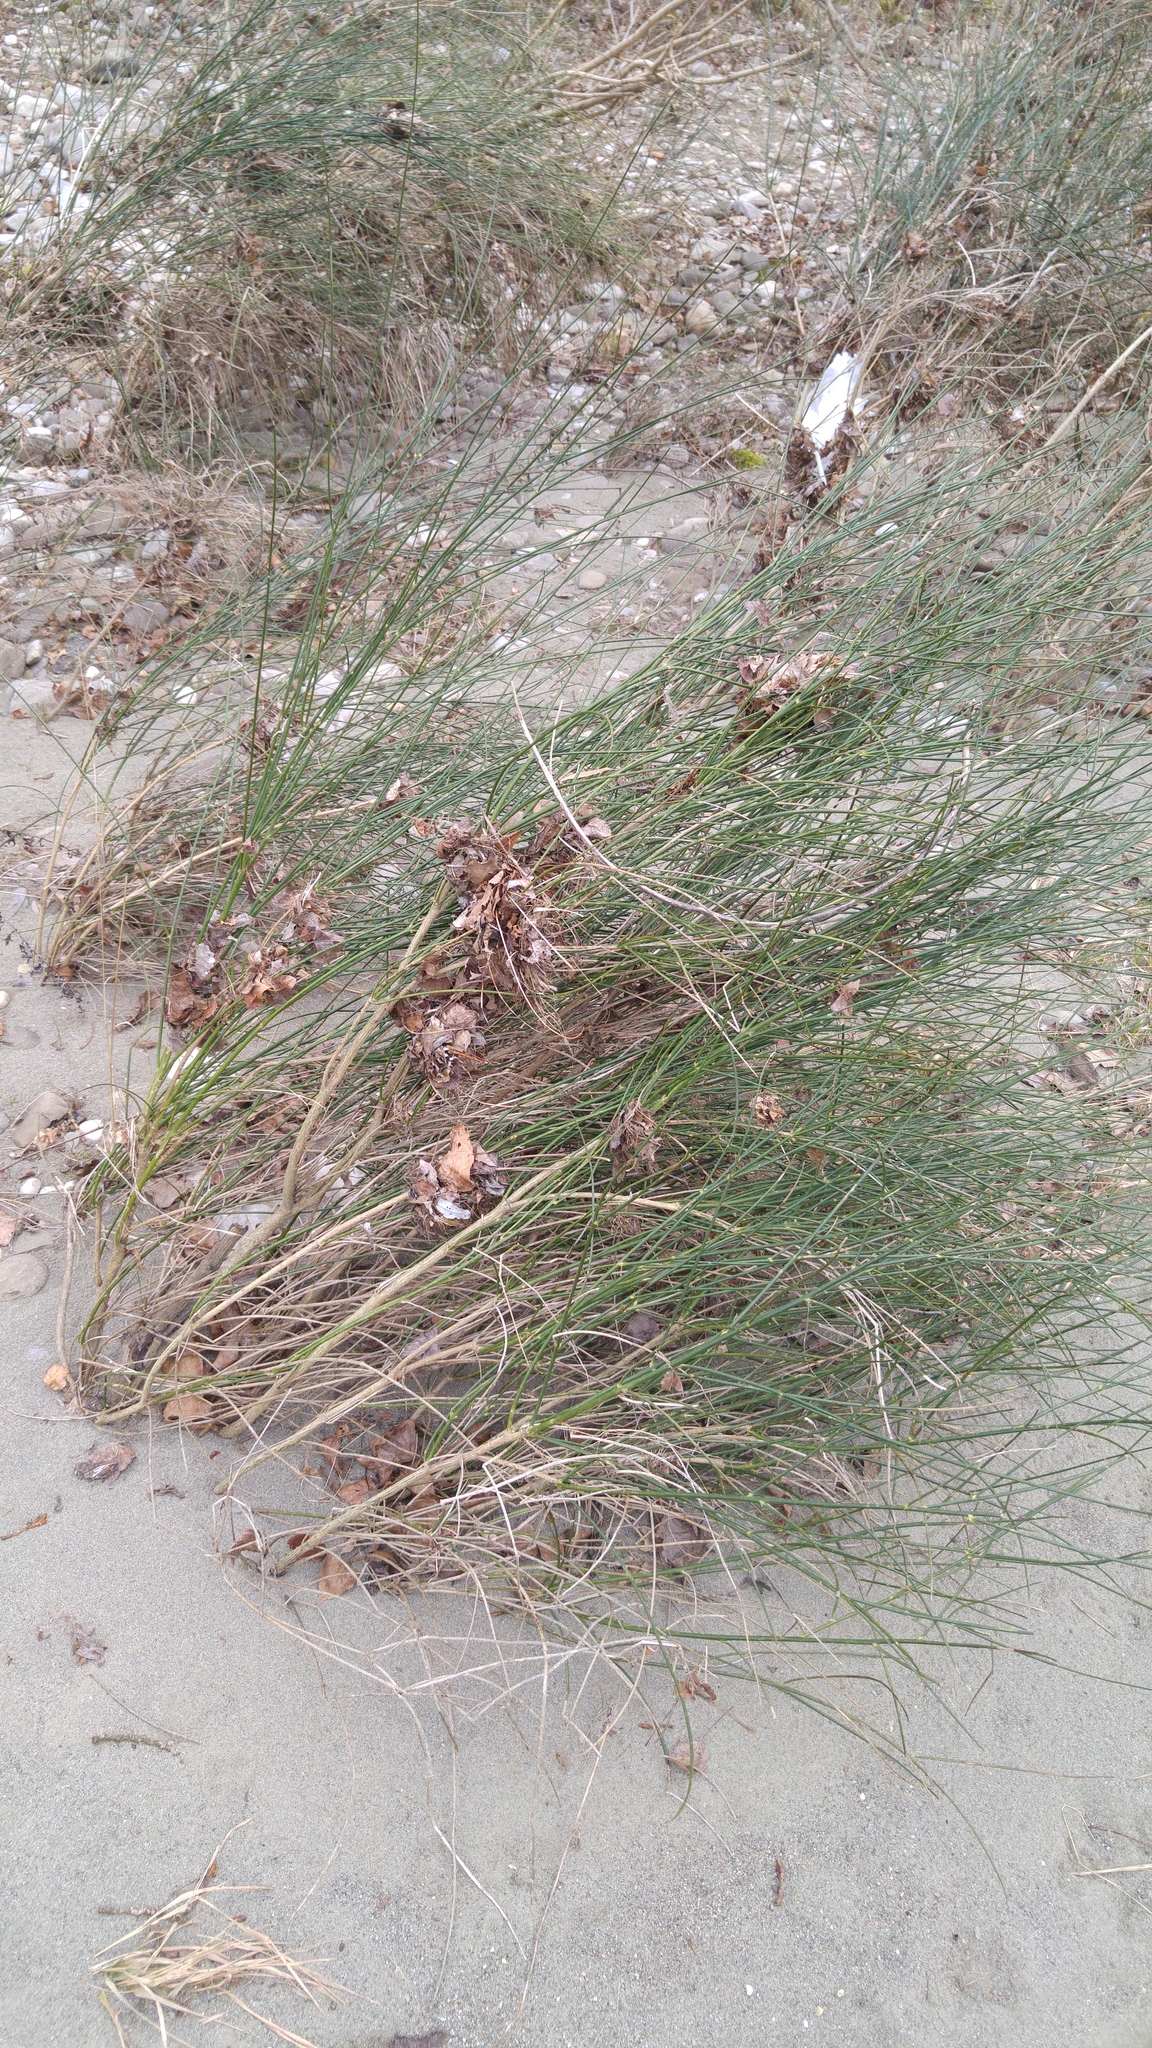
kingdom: Plantae
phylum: Tracheophyta
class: Magnoliopsida
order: Fabales
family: Fabaceae
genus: Spartium
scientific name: Spartium junceum
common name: Spanish broom
